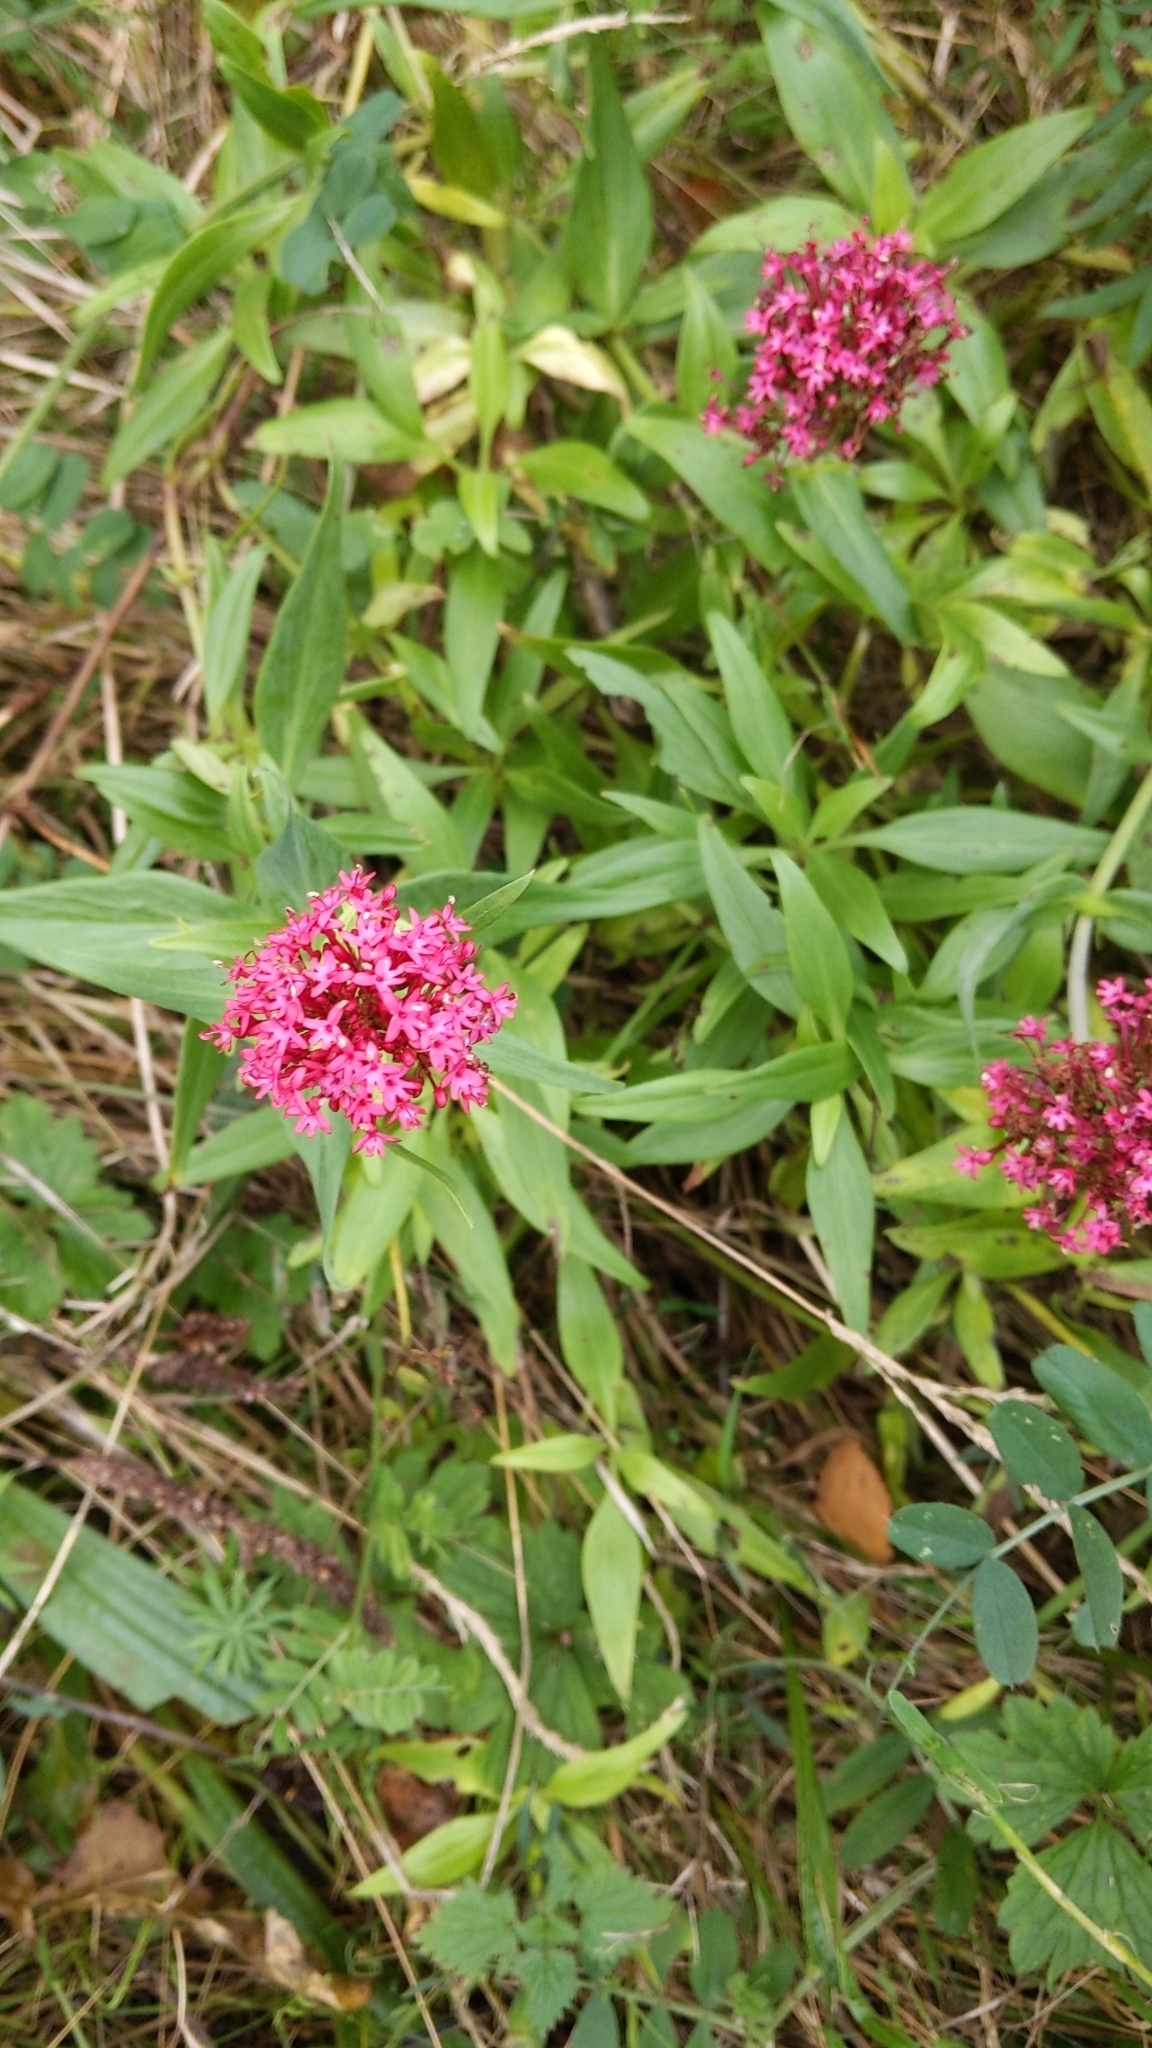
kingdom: Plantae
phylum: Tracheophyta
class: Magnoliopsida
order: Dipsacales
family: Caprifoliaceae
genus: Centranthus
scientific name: Centranthus ruber
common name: Red valerian
